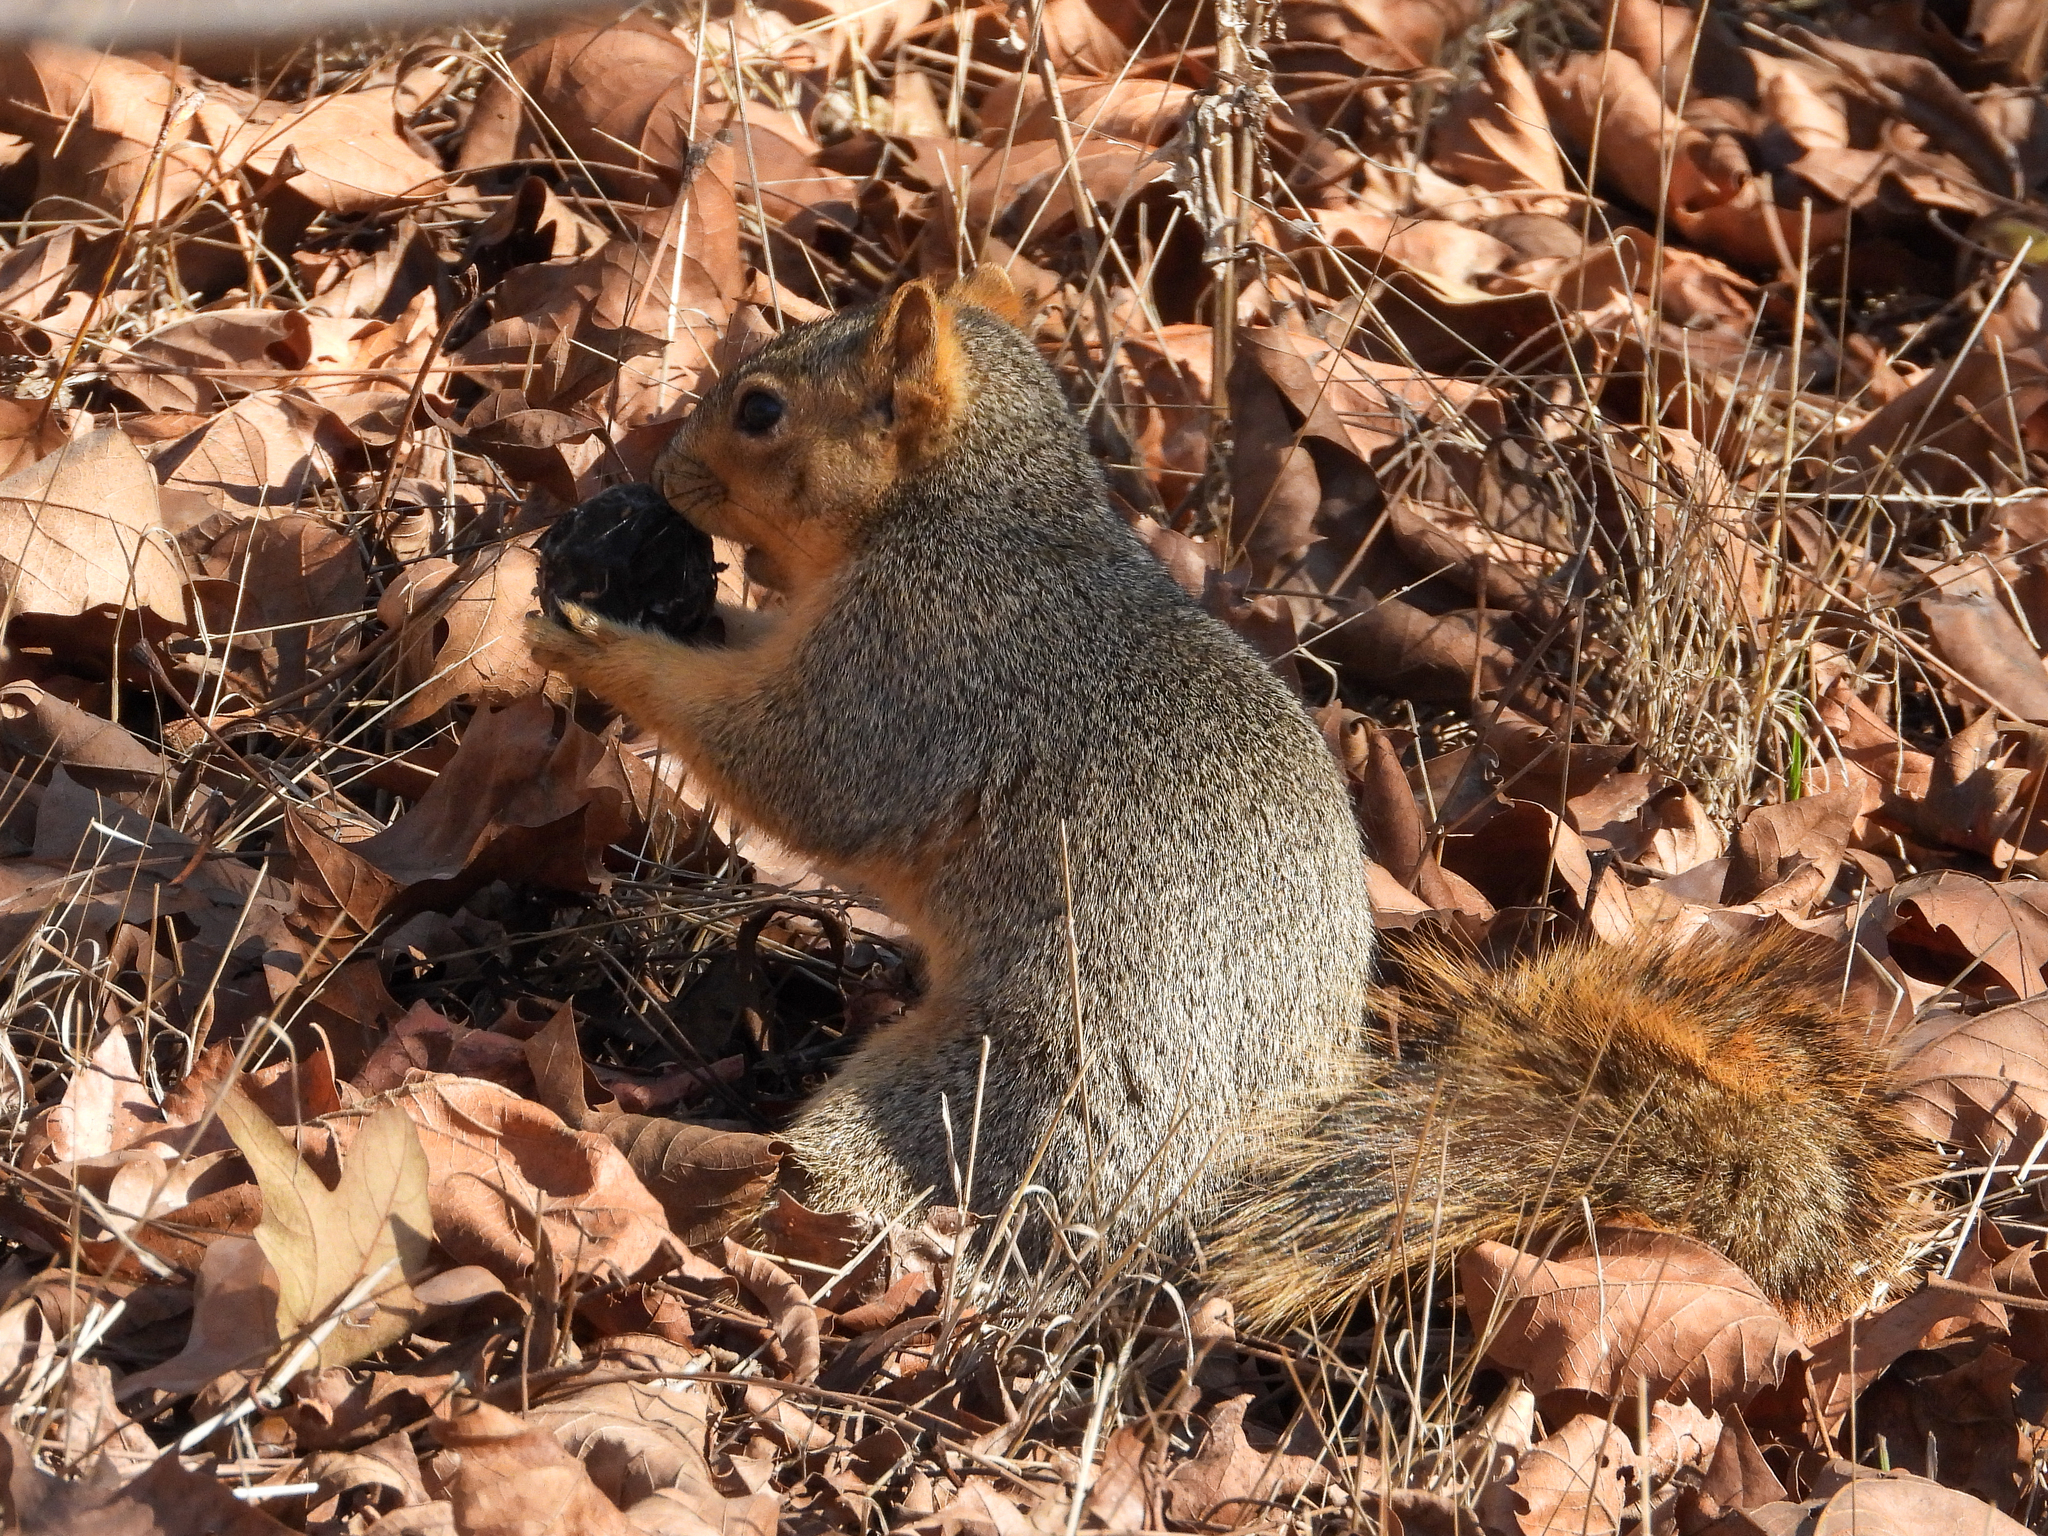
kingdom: Animalia
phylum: Chordata
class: Mammalia
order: Rodentia
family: Sciuridae
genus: Sciurus
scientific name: Sciurus niger
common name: Fox squirrel
